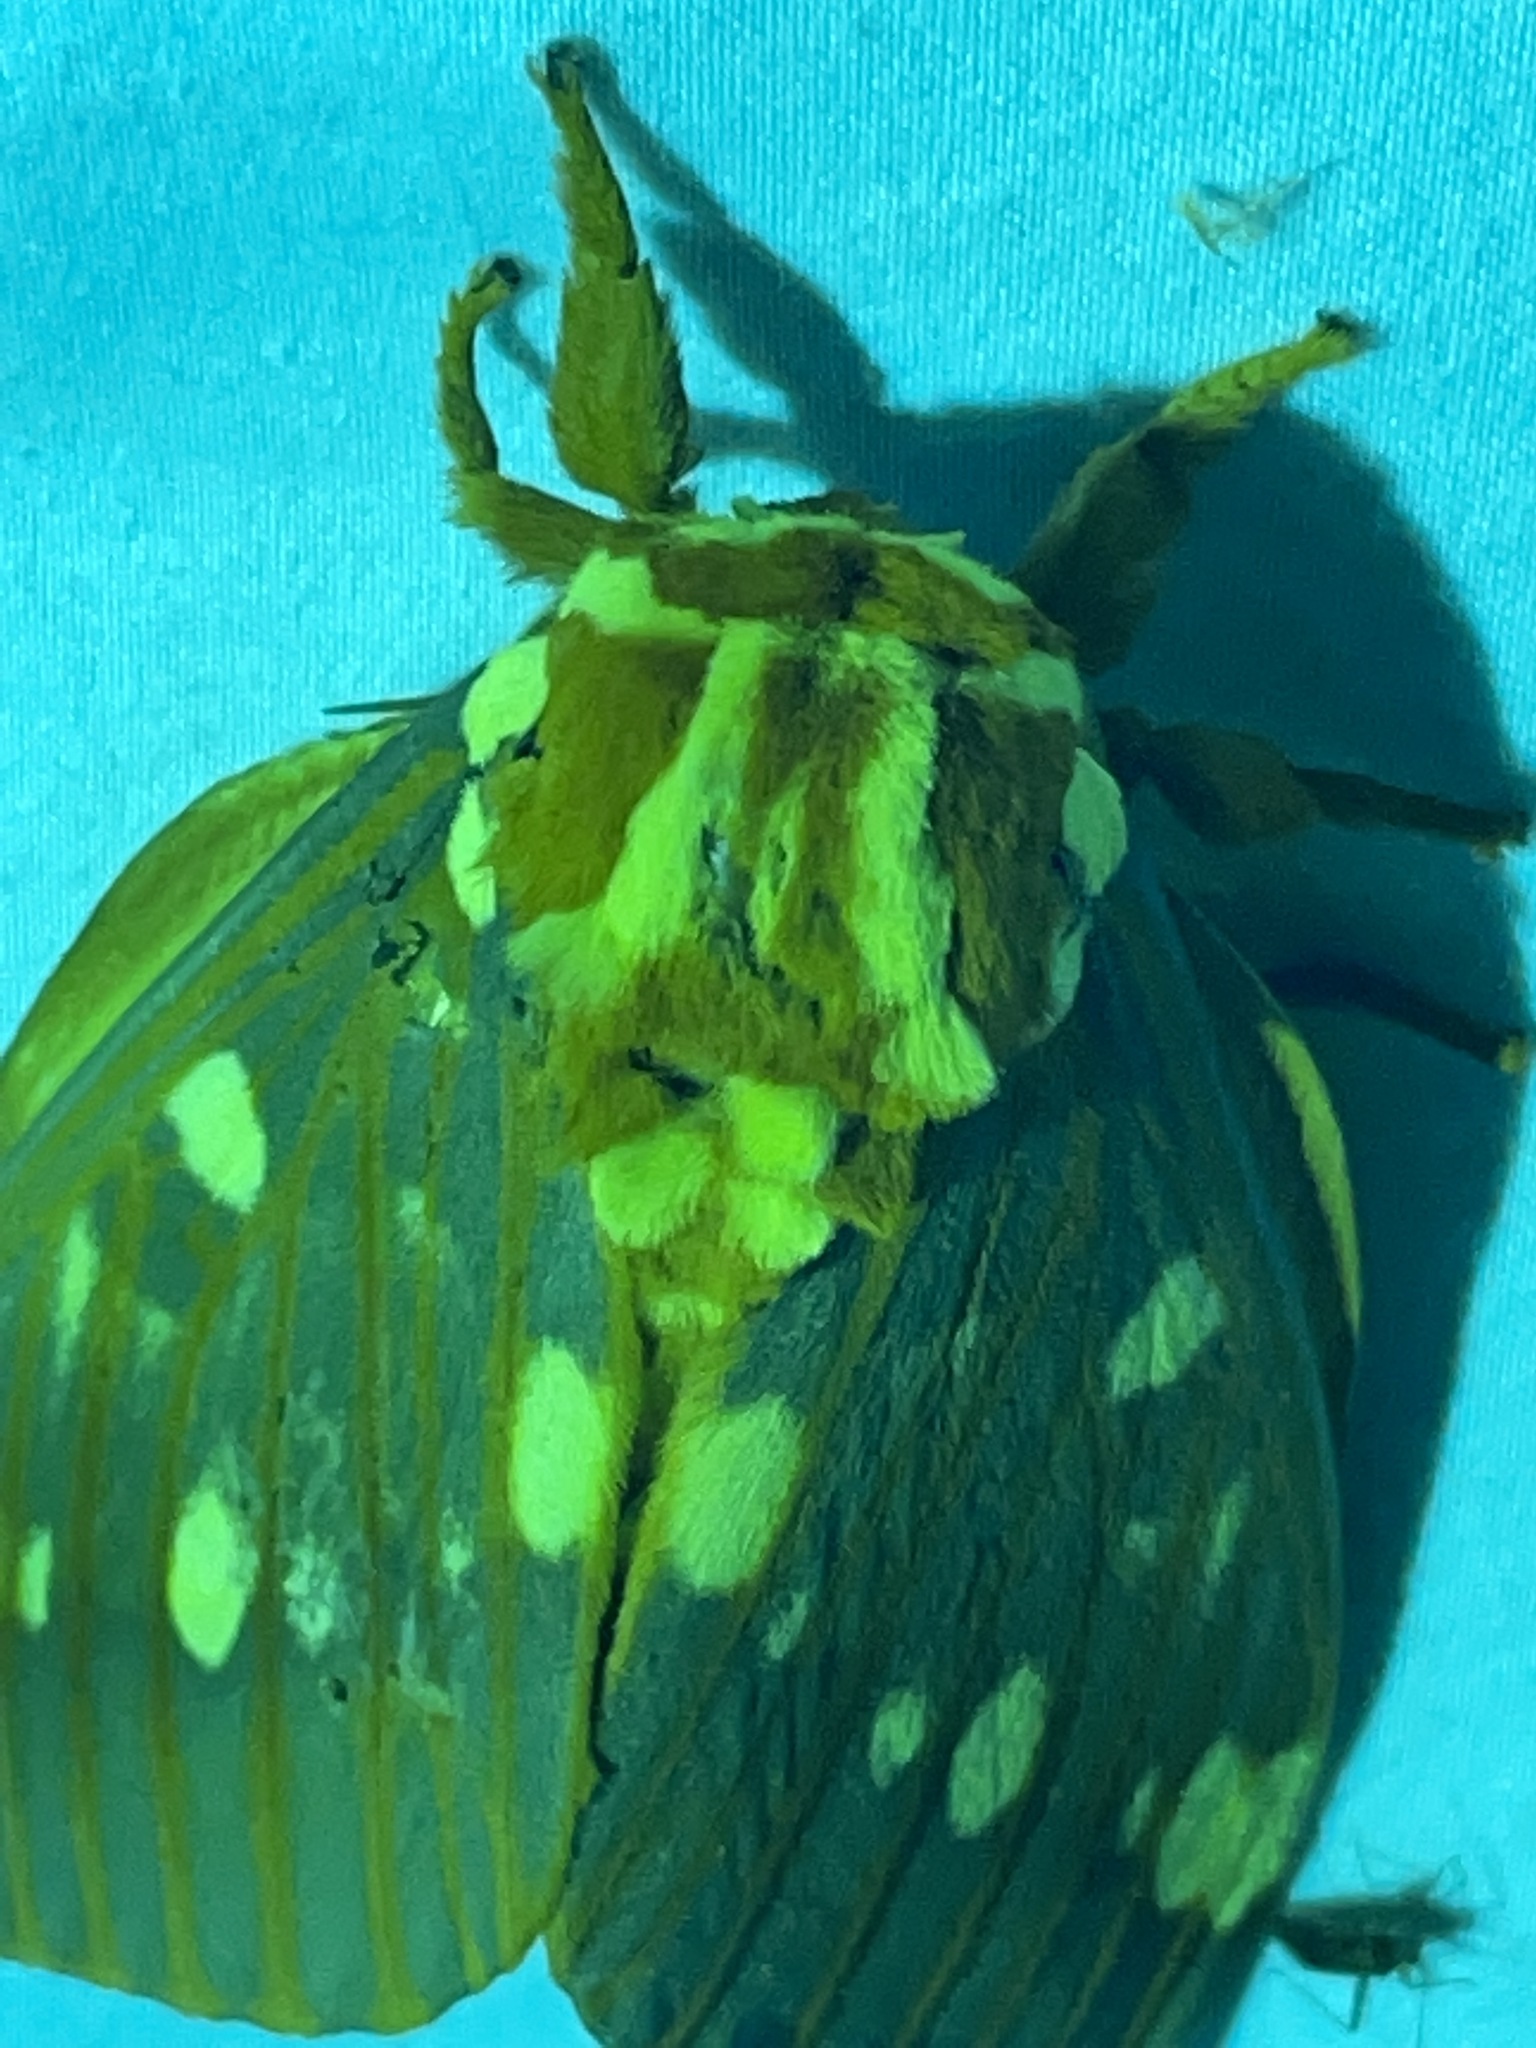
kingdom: Animalia
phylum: Arthropoda
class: Insecta
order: Lepidoptera
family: Saturniidae
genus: Citheronia
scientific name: Citheronia regalis
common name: Hickory horned devil
